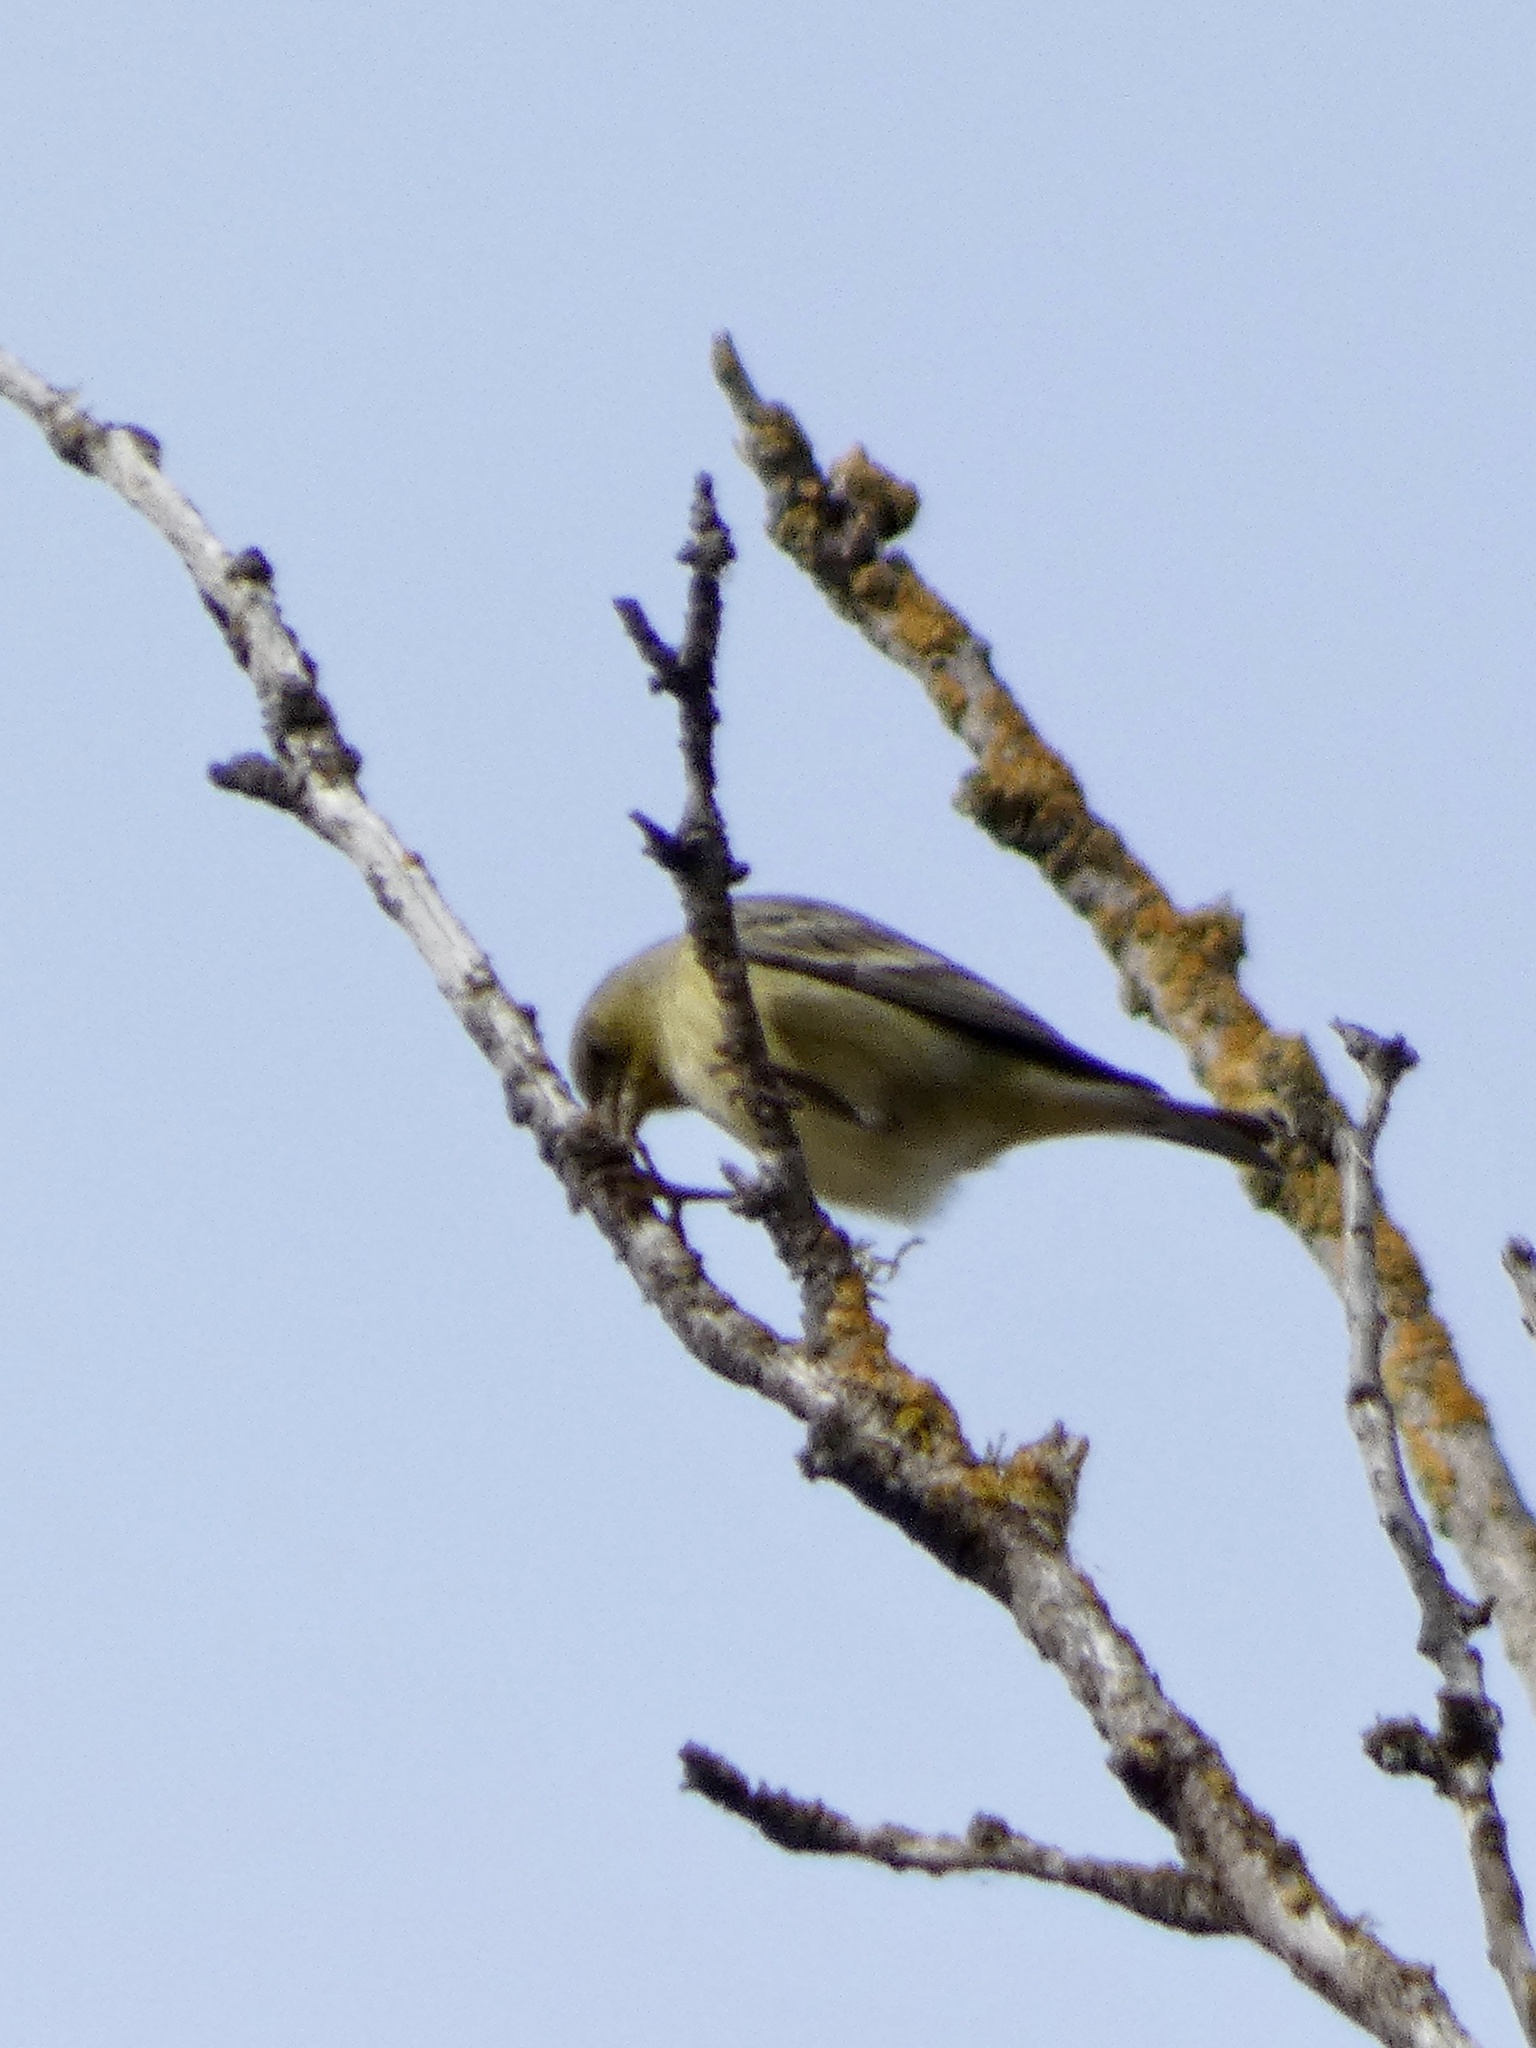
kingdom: Animalia
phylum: Chordata
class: Aves
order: Passeriformes
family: Fringillidae
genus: Spinus
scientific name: Spinus psaltria
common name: Lesser goldfinch
